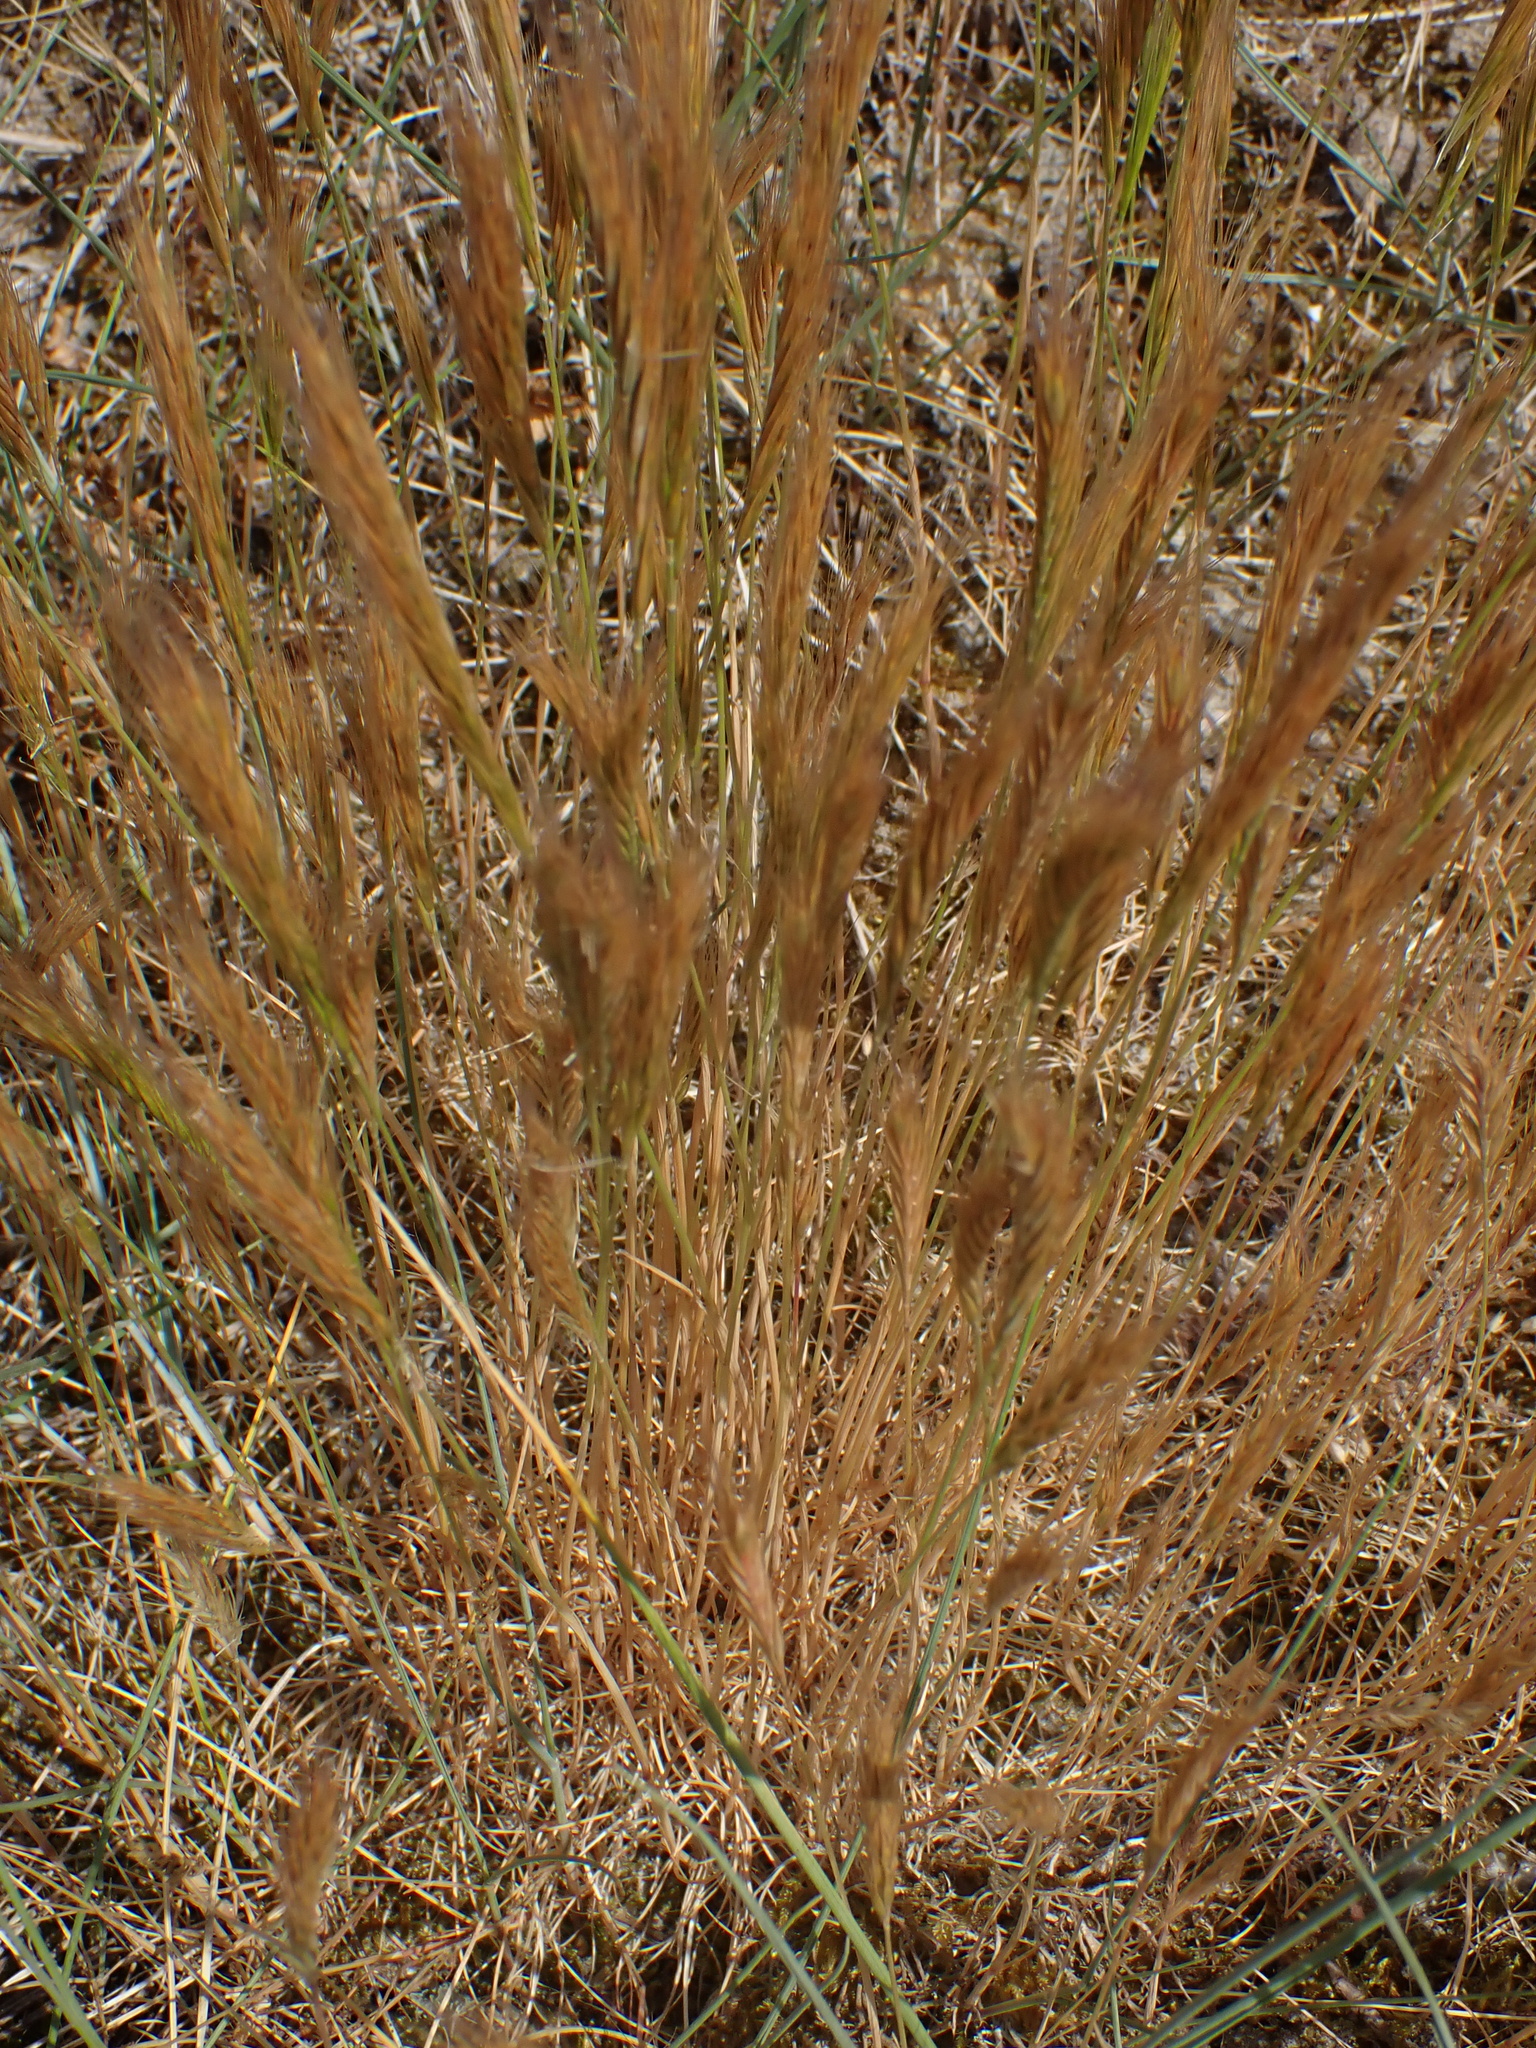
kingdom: Plantae
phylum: Tracheophyta
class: Liliopsida
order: Poales
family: Poaceae
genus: Festuca
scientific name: Festuca fasciculata
